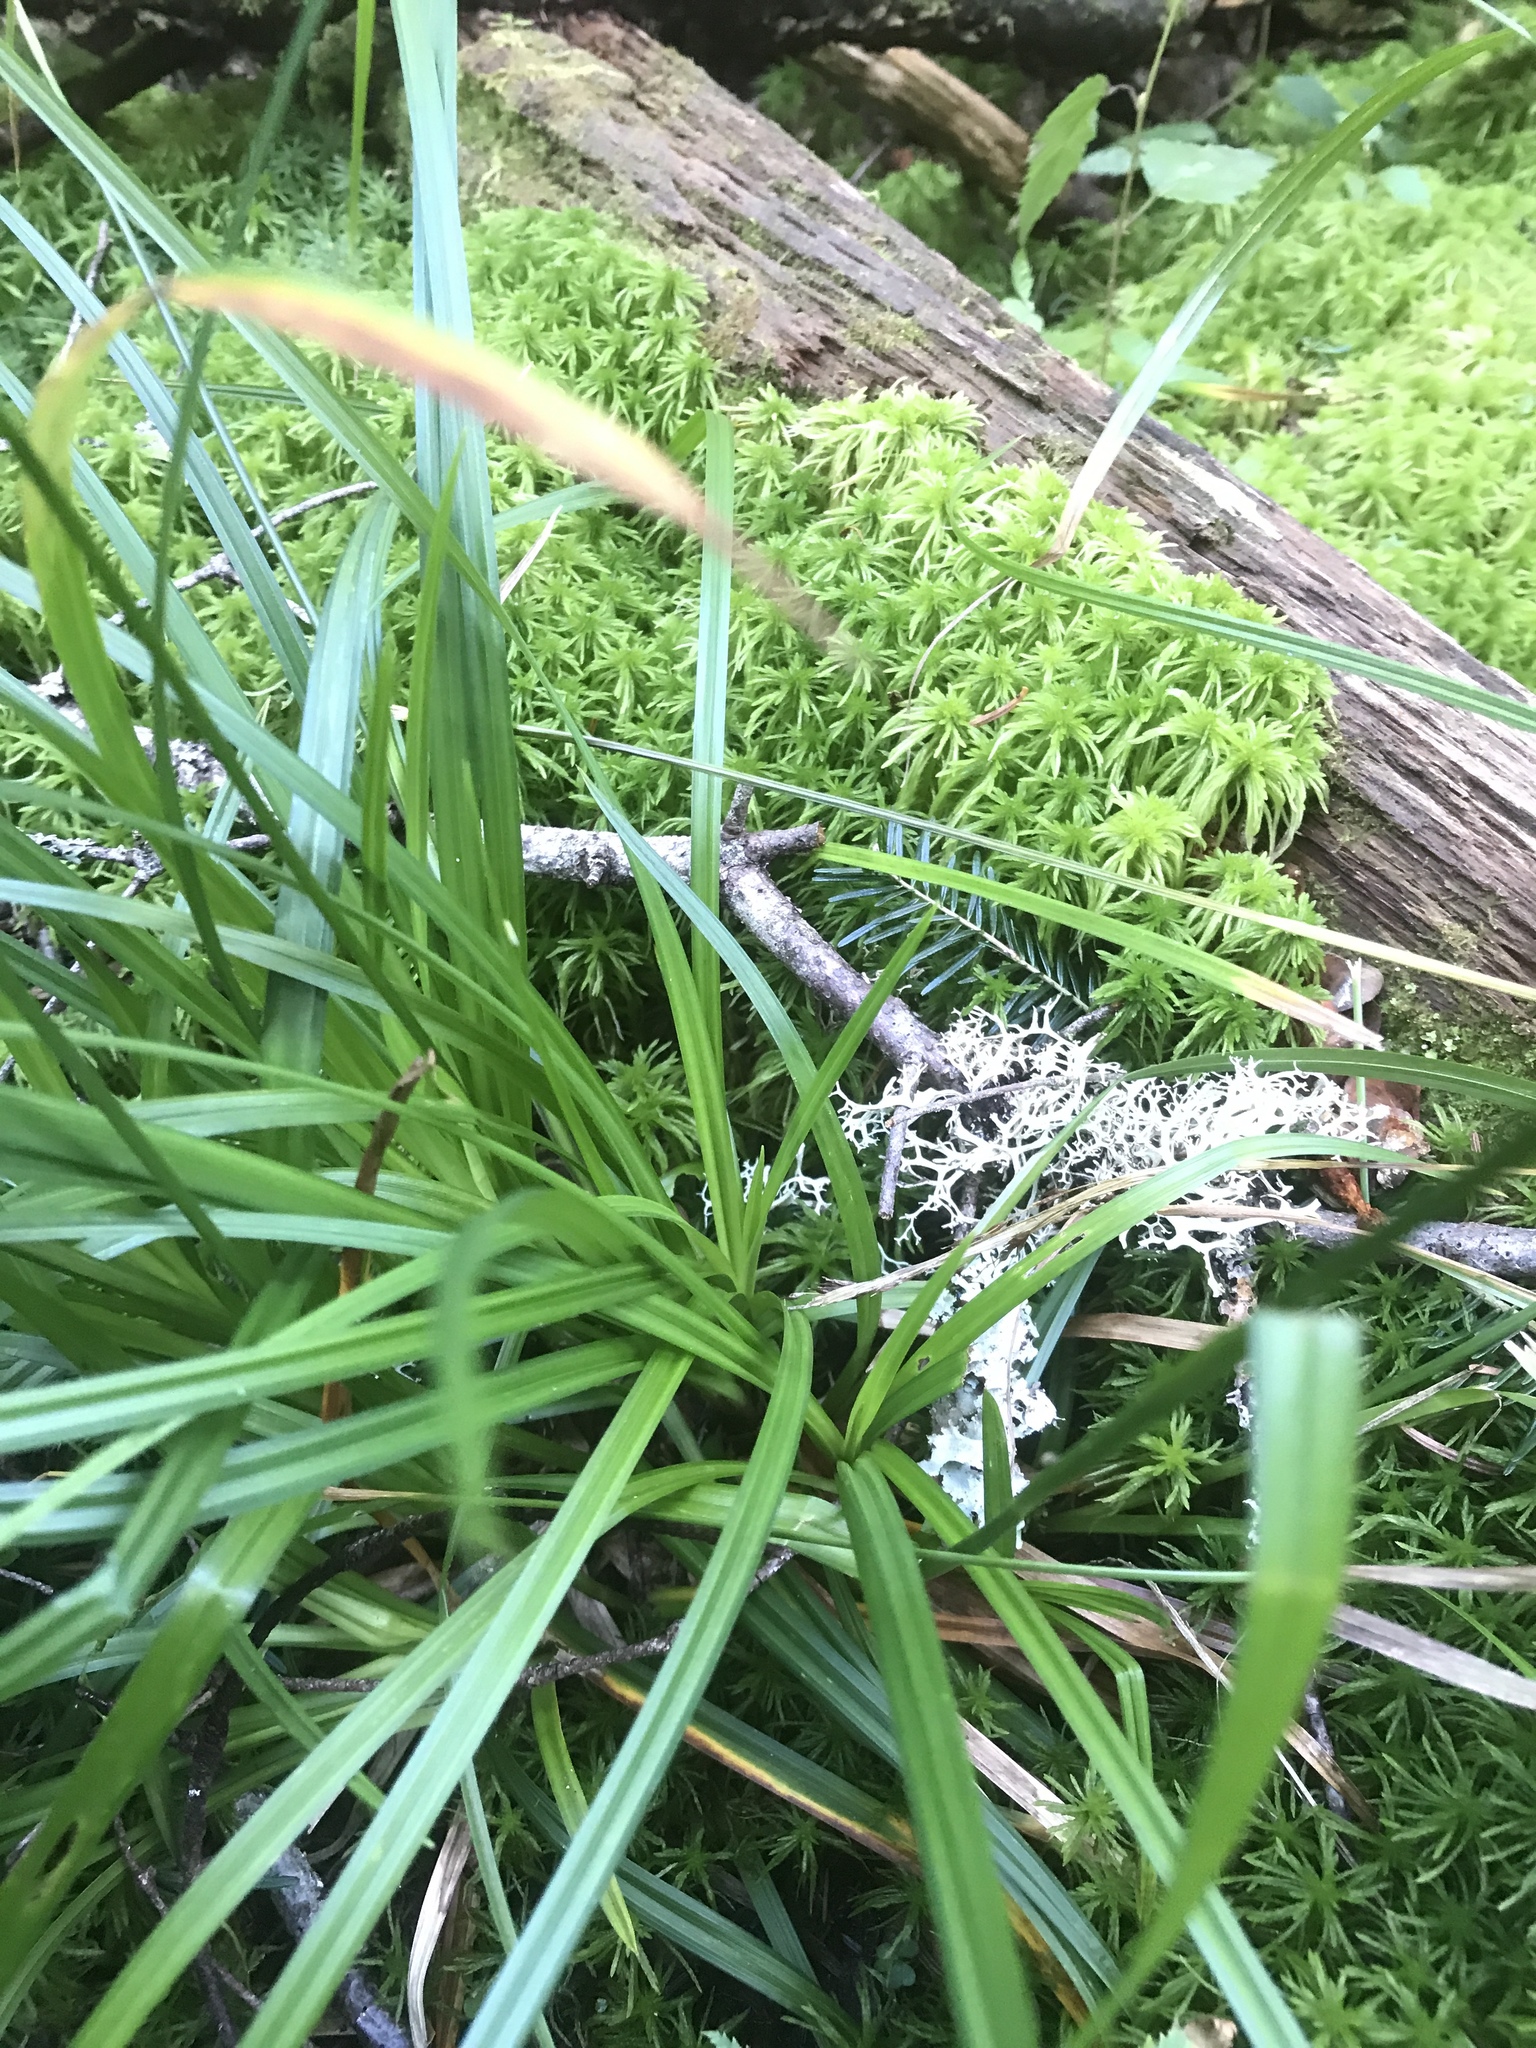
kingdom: Plantae
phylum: Tracheophyta
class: Liliopsida
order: Poales
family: Cyperaceae
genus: Carex
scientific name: Carex intumescens
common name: Greater bladder sedge
